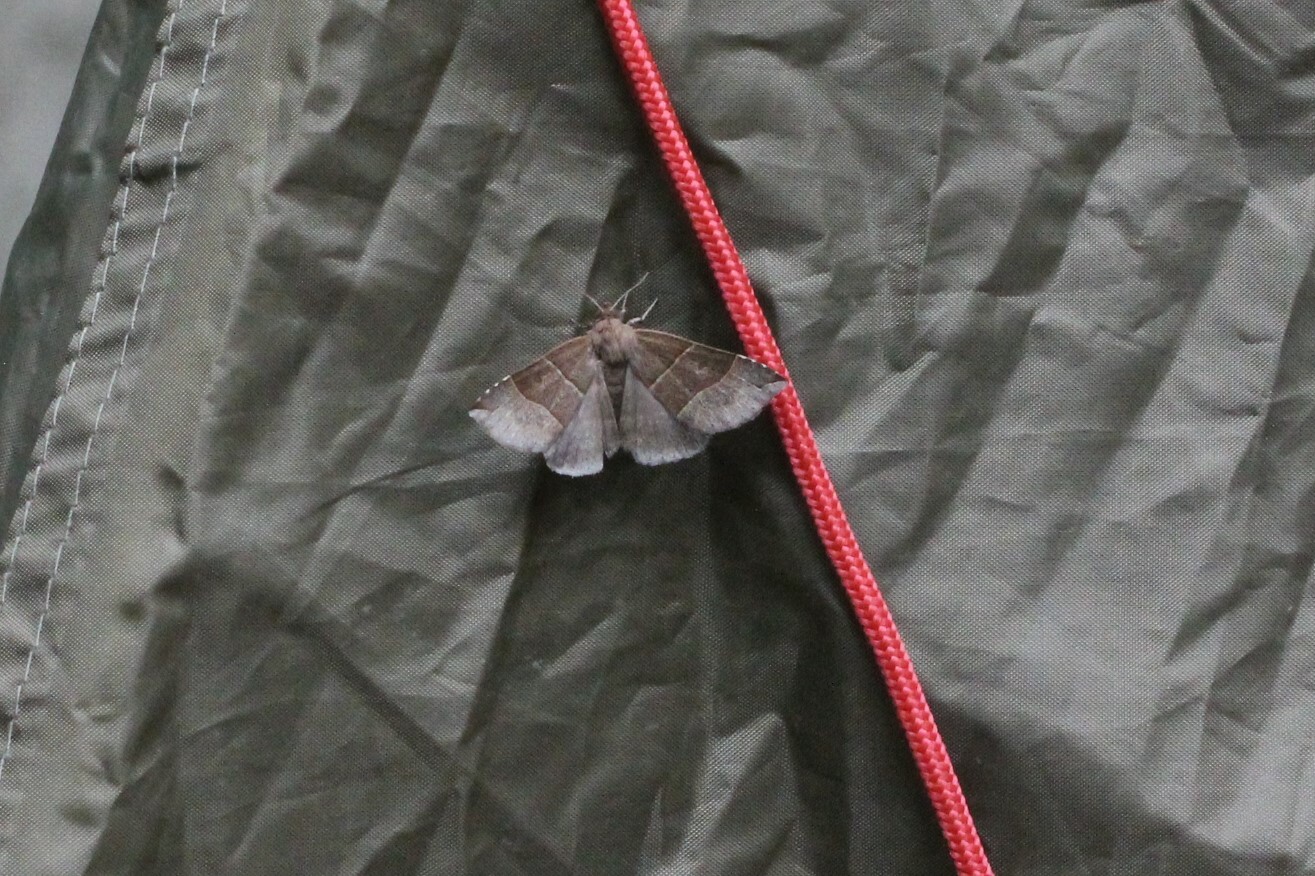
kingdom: Animalia
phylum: Arthropoda
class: Insecta
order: Lepidoptera
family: Erebidae
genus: Parallelia
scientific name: Parallelia bistriaris
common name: Maple looper moth
